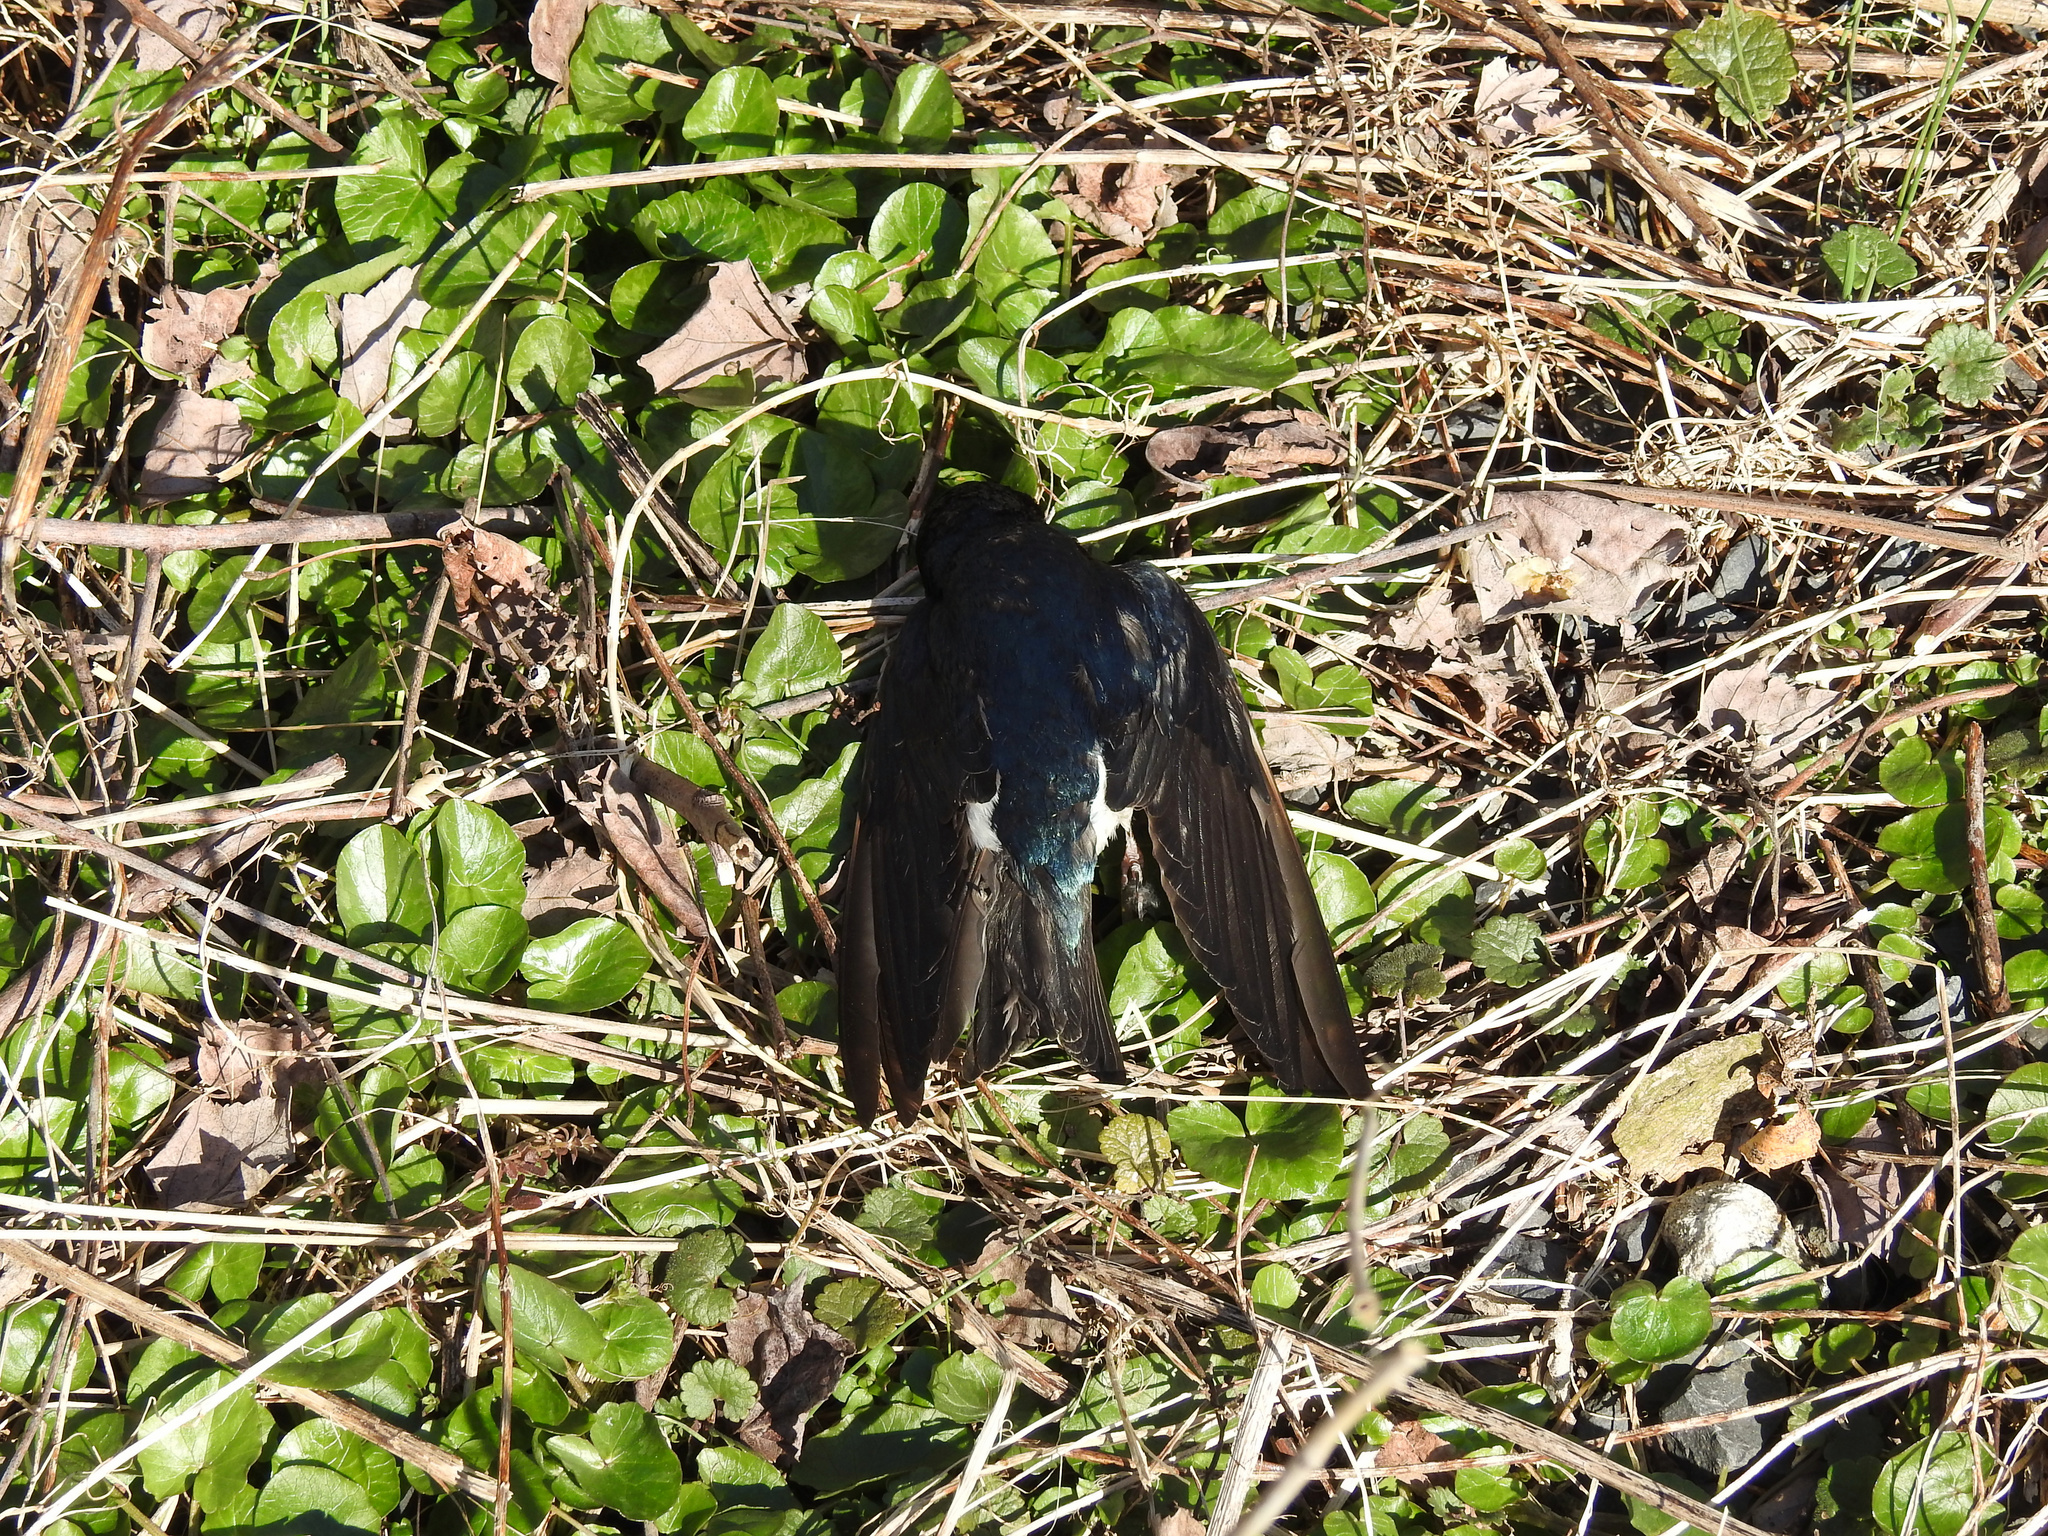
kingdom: Animalia
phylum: Chordata
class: Aves
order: Passeriformes
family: Hirundinidae
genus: Tachycineta
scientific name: Tachycineta bicolor
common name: Tree swallow
